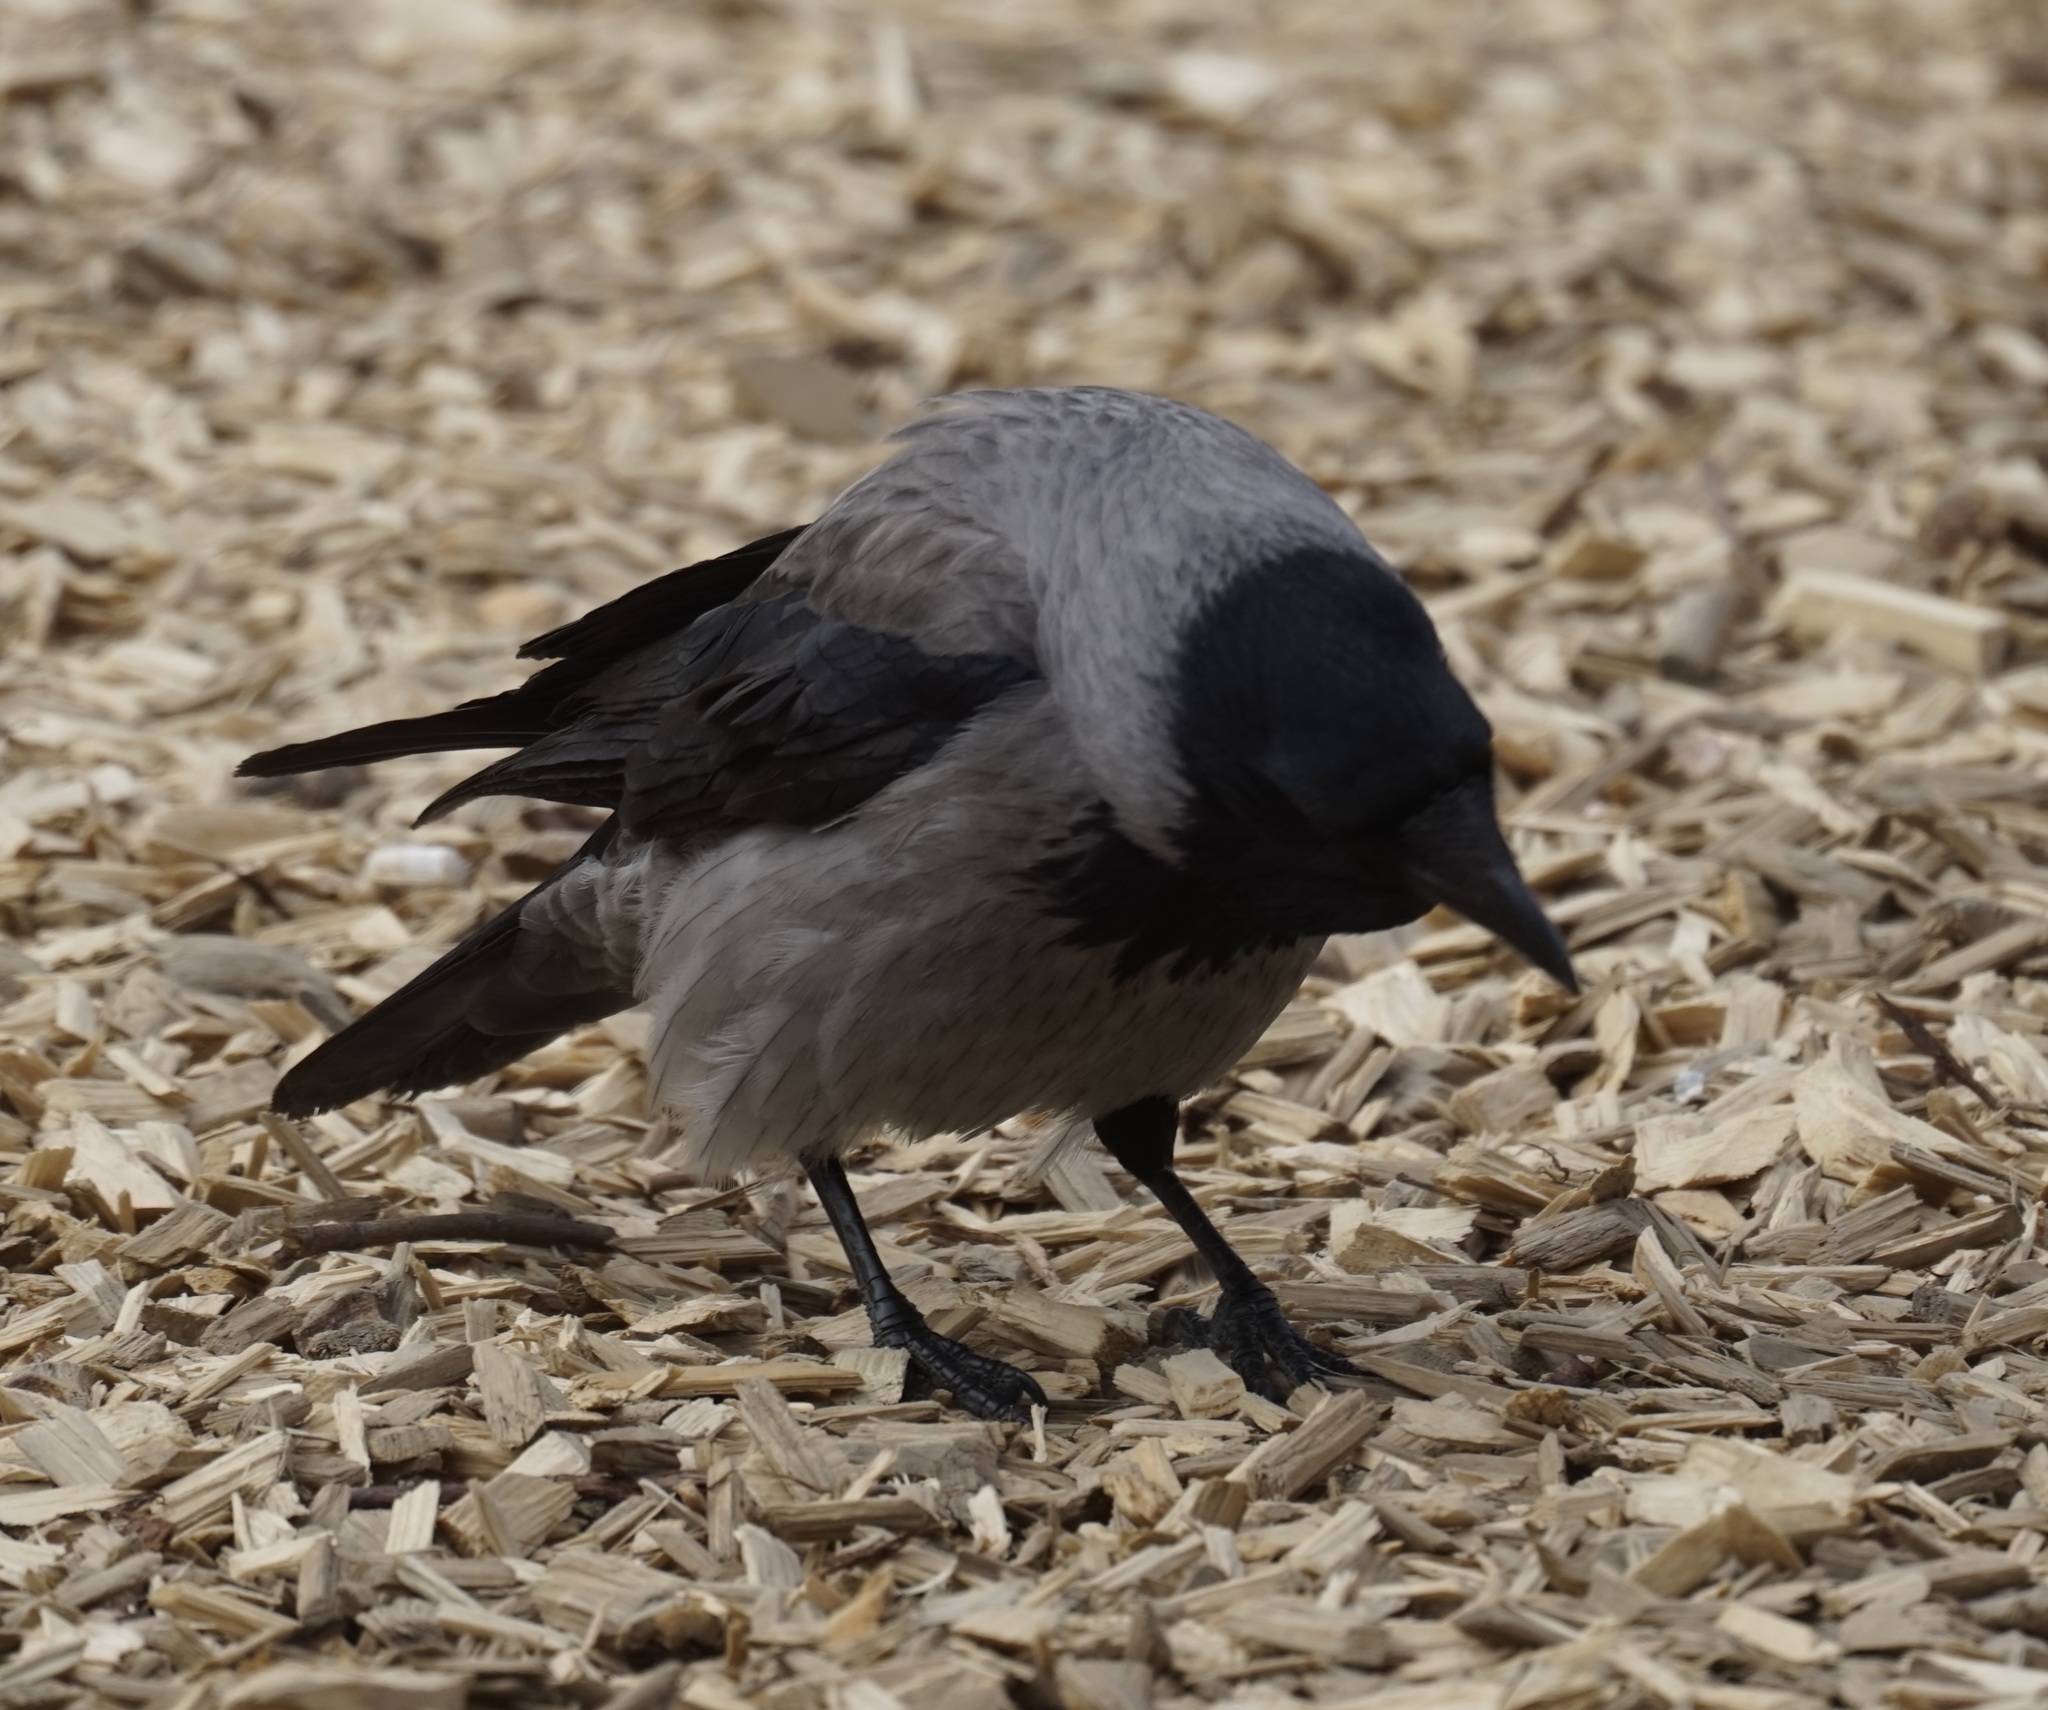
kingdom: Animalia
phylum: Chordata
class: Aves
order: Passeriformes
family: Corvidae
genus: Corvus
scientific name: Corvus cornix
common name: Hooded crow
